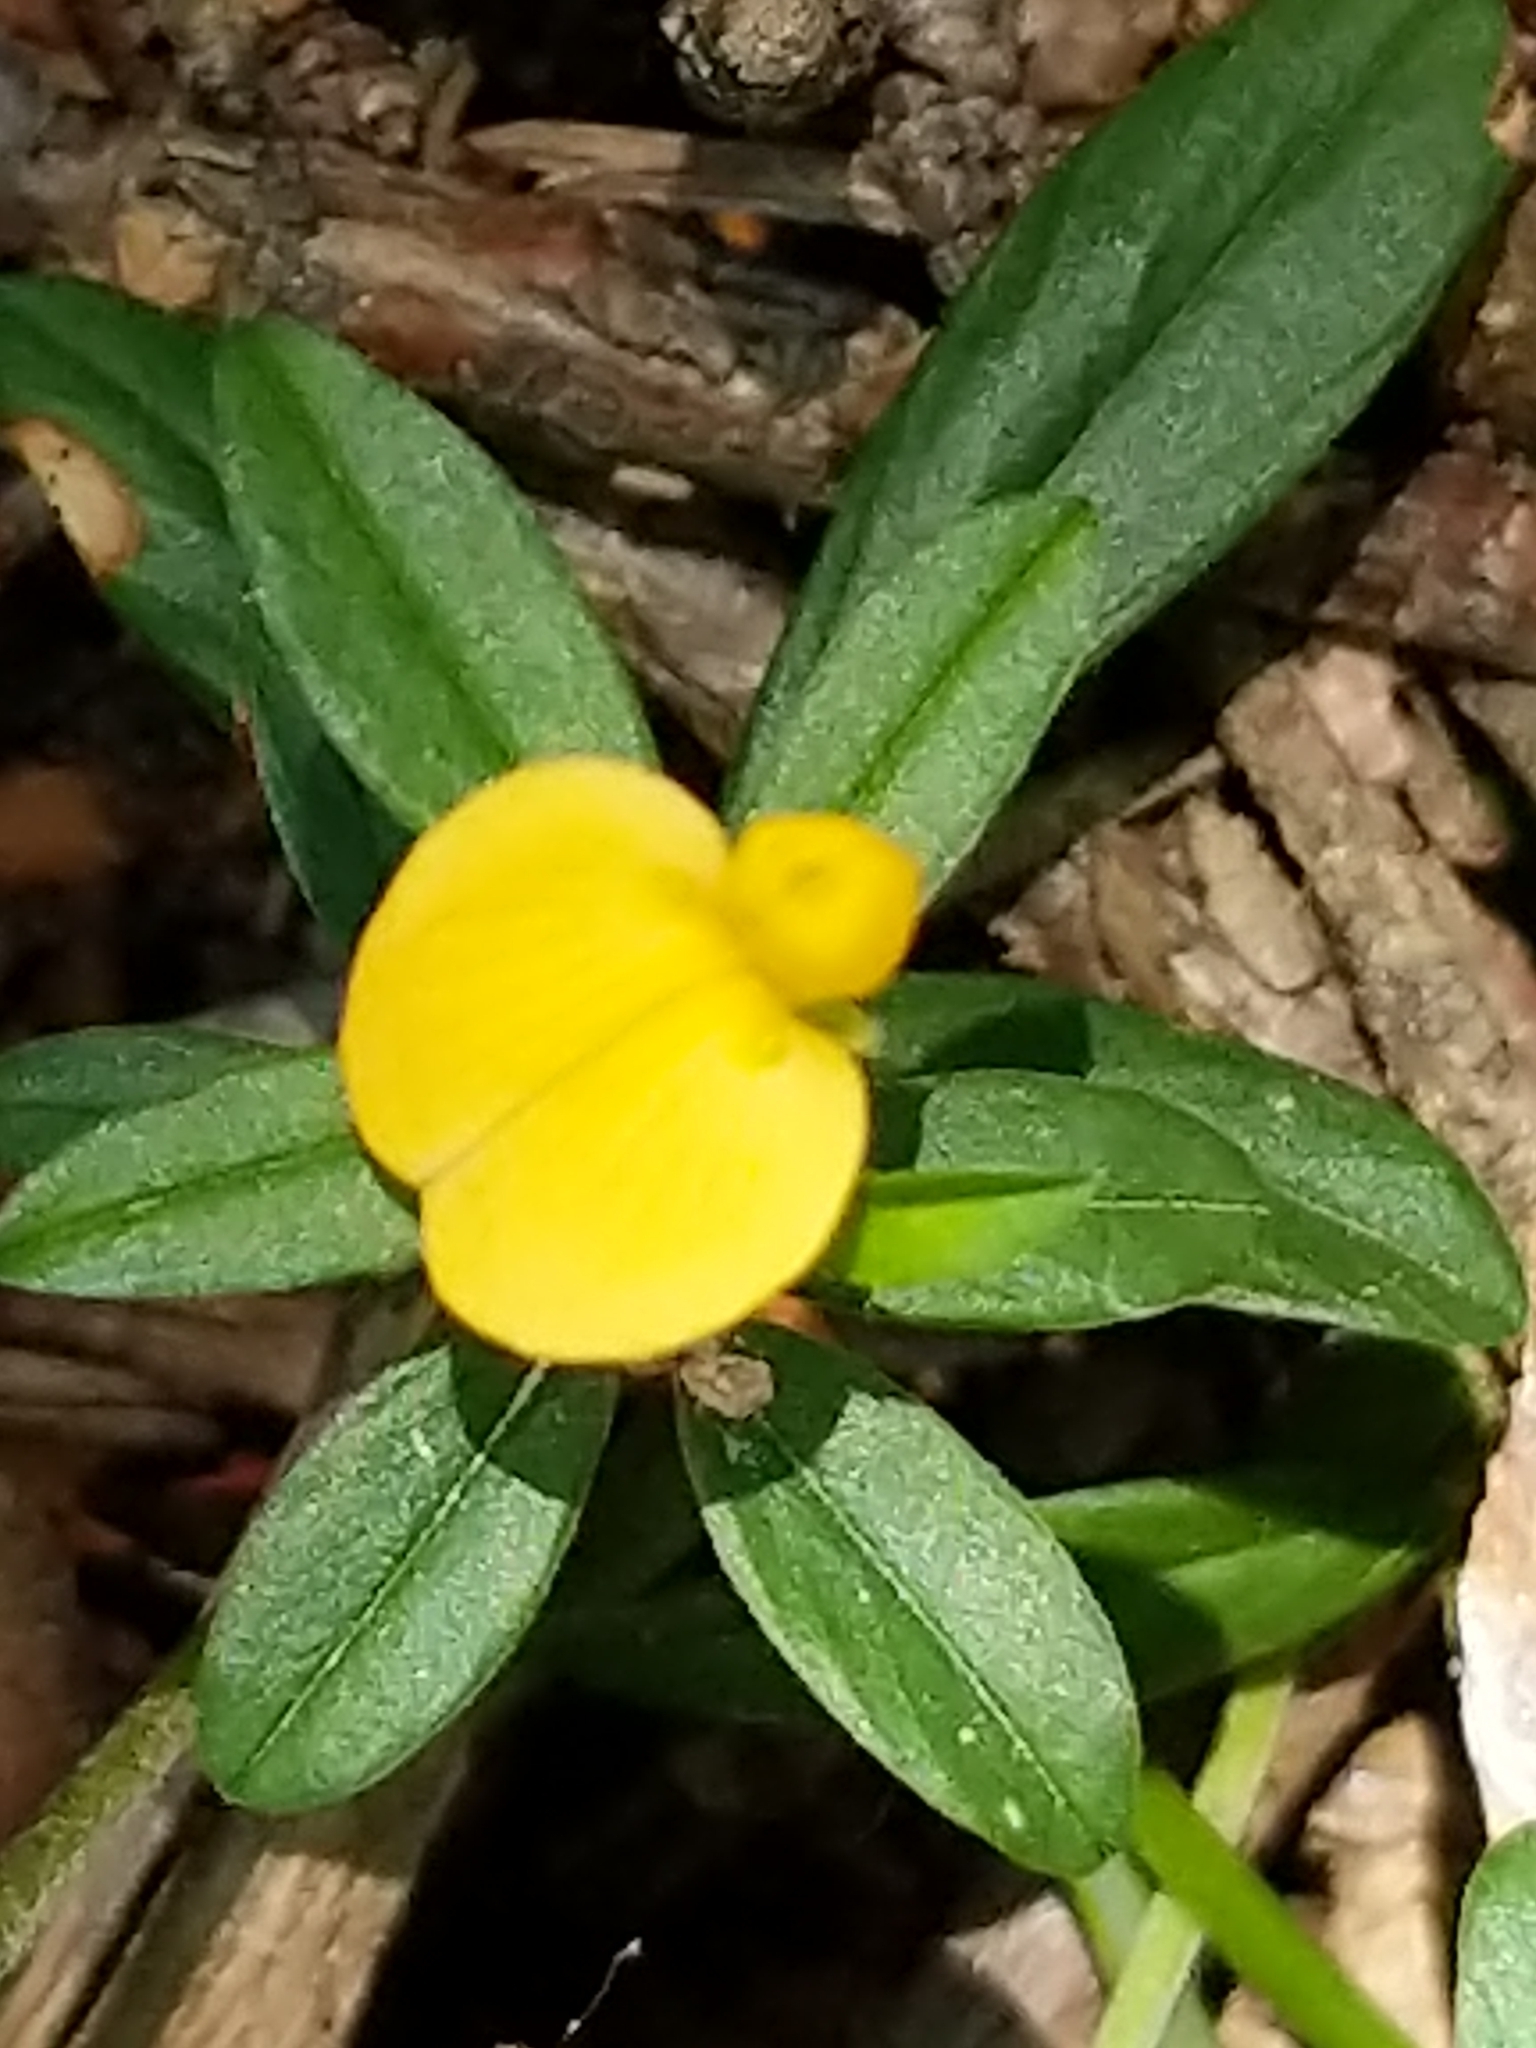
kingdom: Plantae
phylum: Tracheophyta
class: Magnoliopsida
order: Fabales
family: Fabaceae
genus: Stylosanthes
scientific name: Stylosanthes biflora
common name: Two-flower pencil-flower
